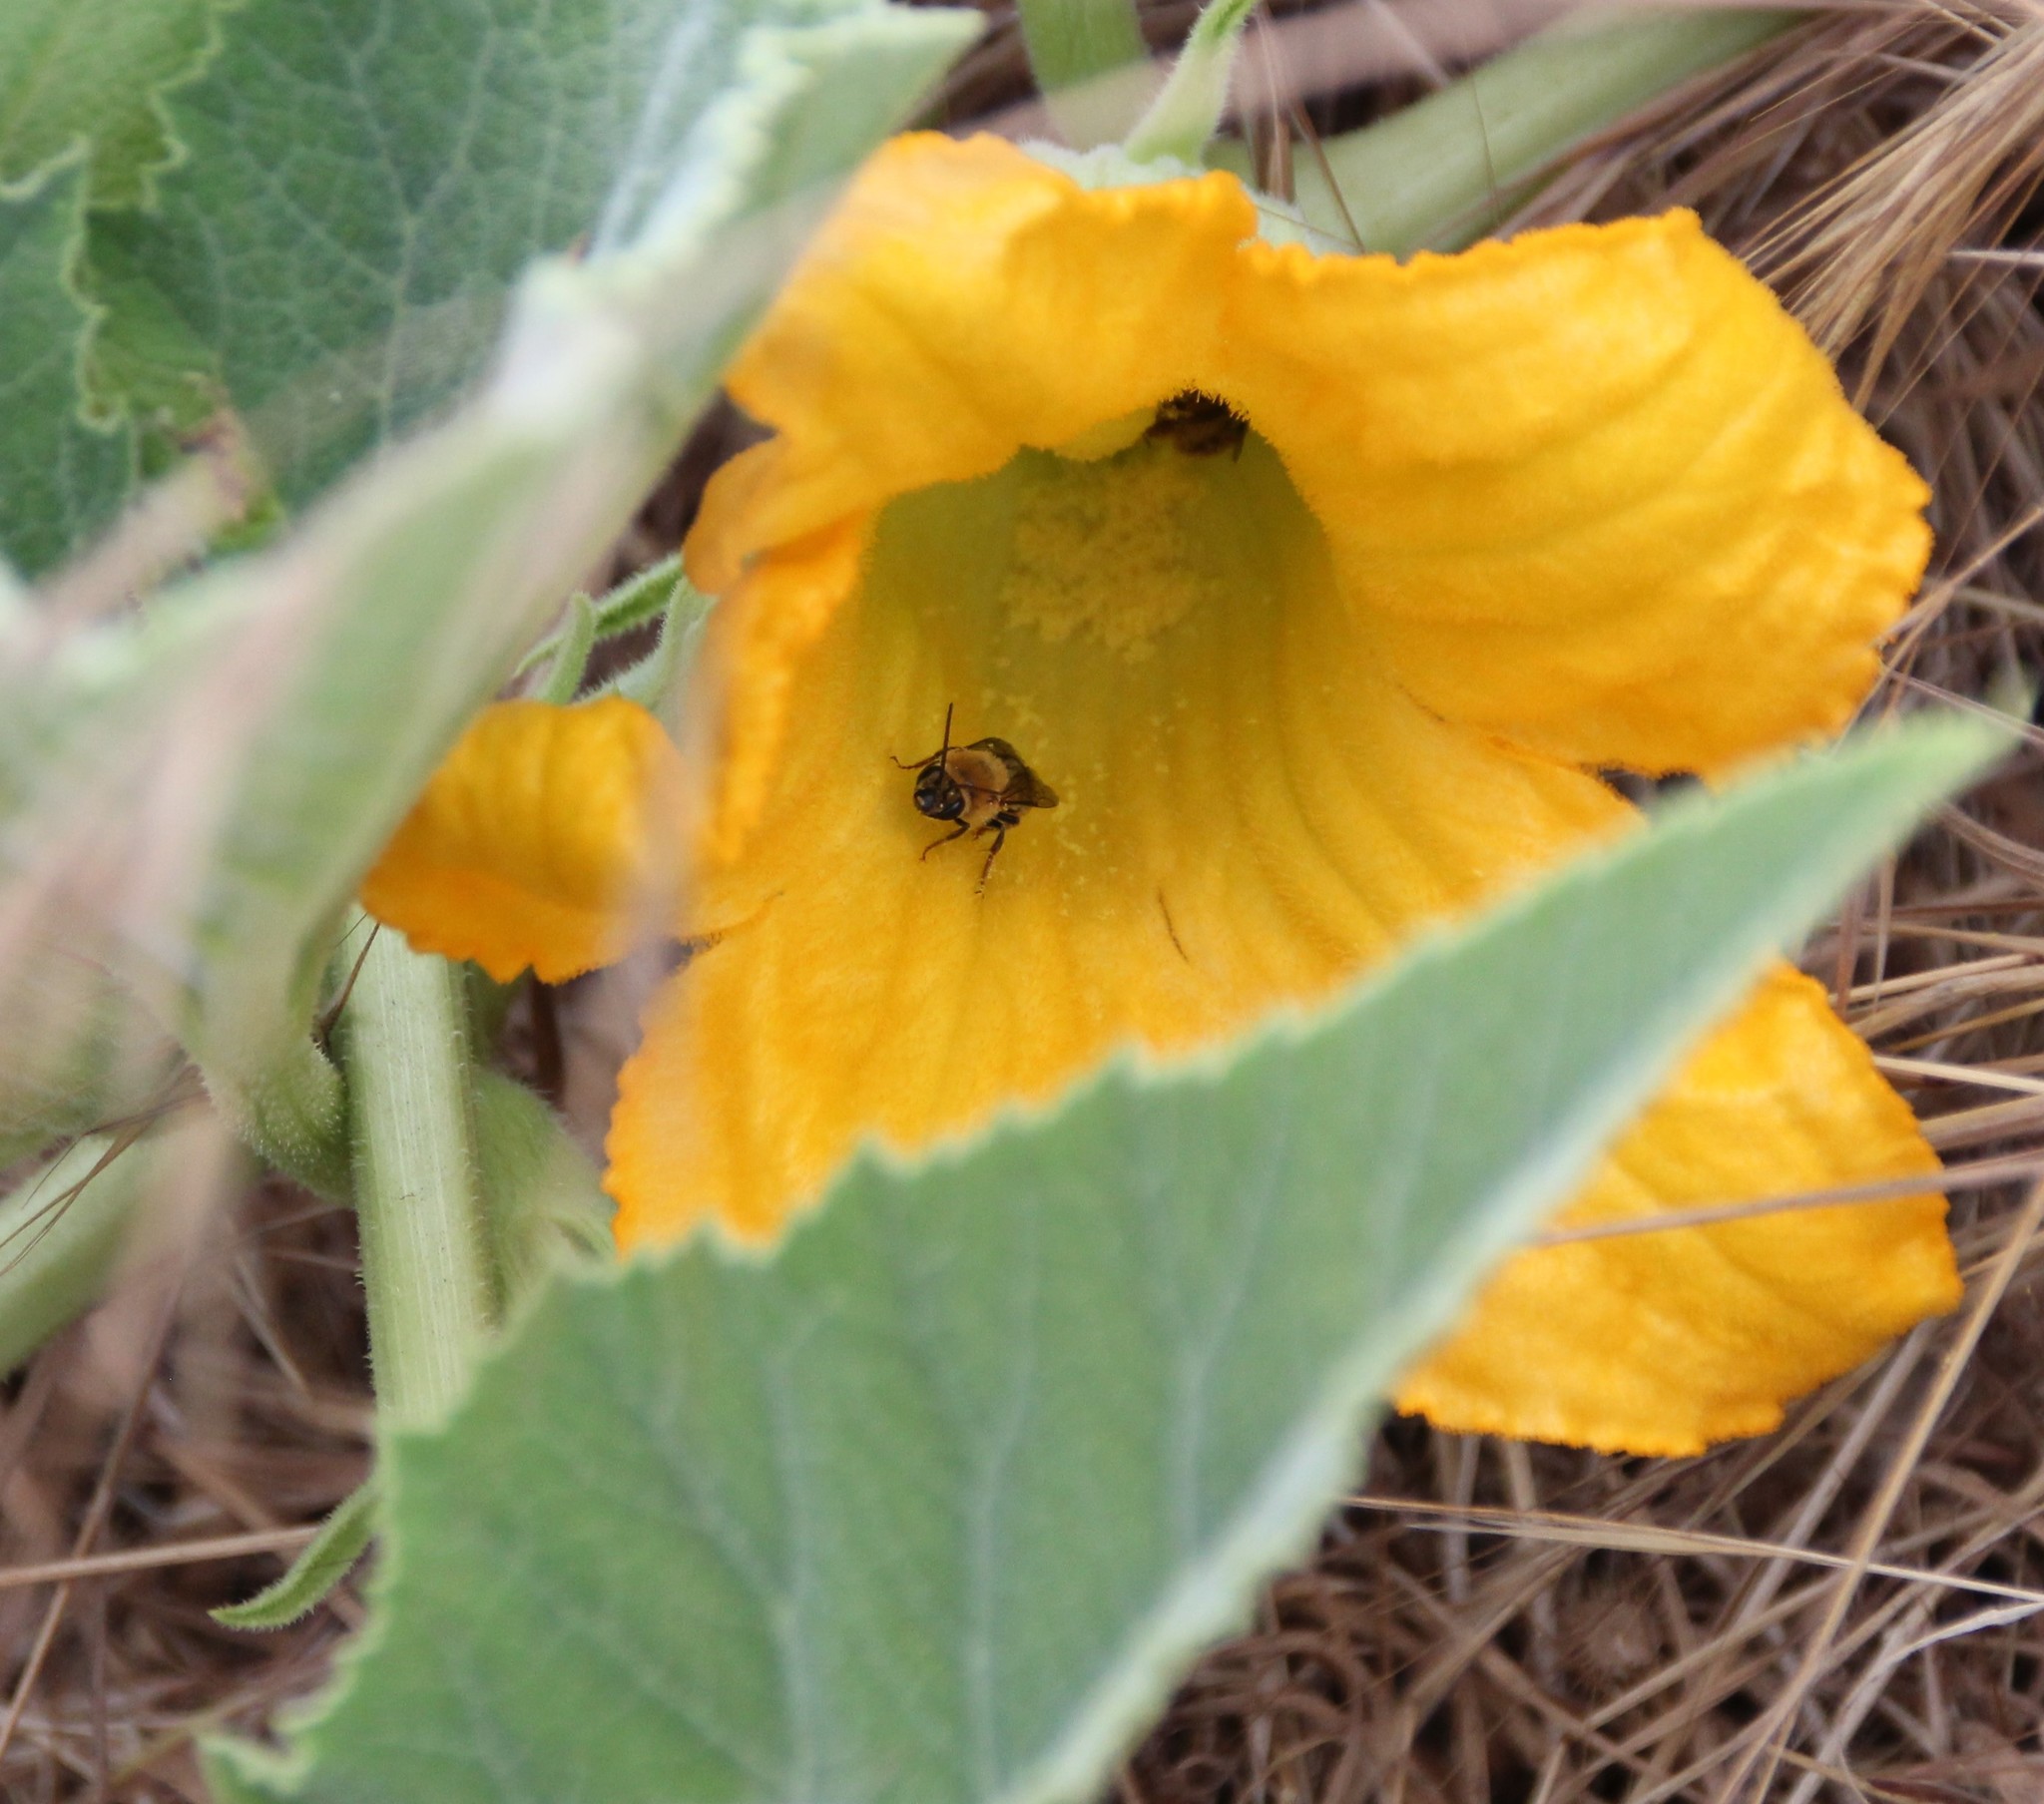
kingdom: Animalia
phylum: Arthropoda
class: Insecta
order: Hymenoptera
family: Apidae
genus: Peponapis
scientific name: Peponapis pruinosa
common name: Pruinose squash bee
